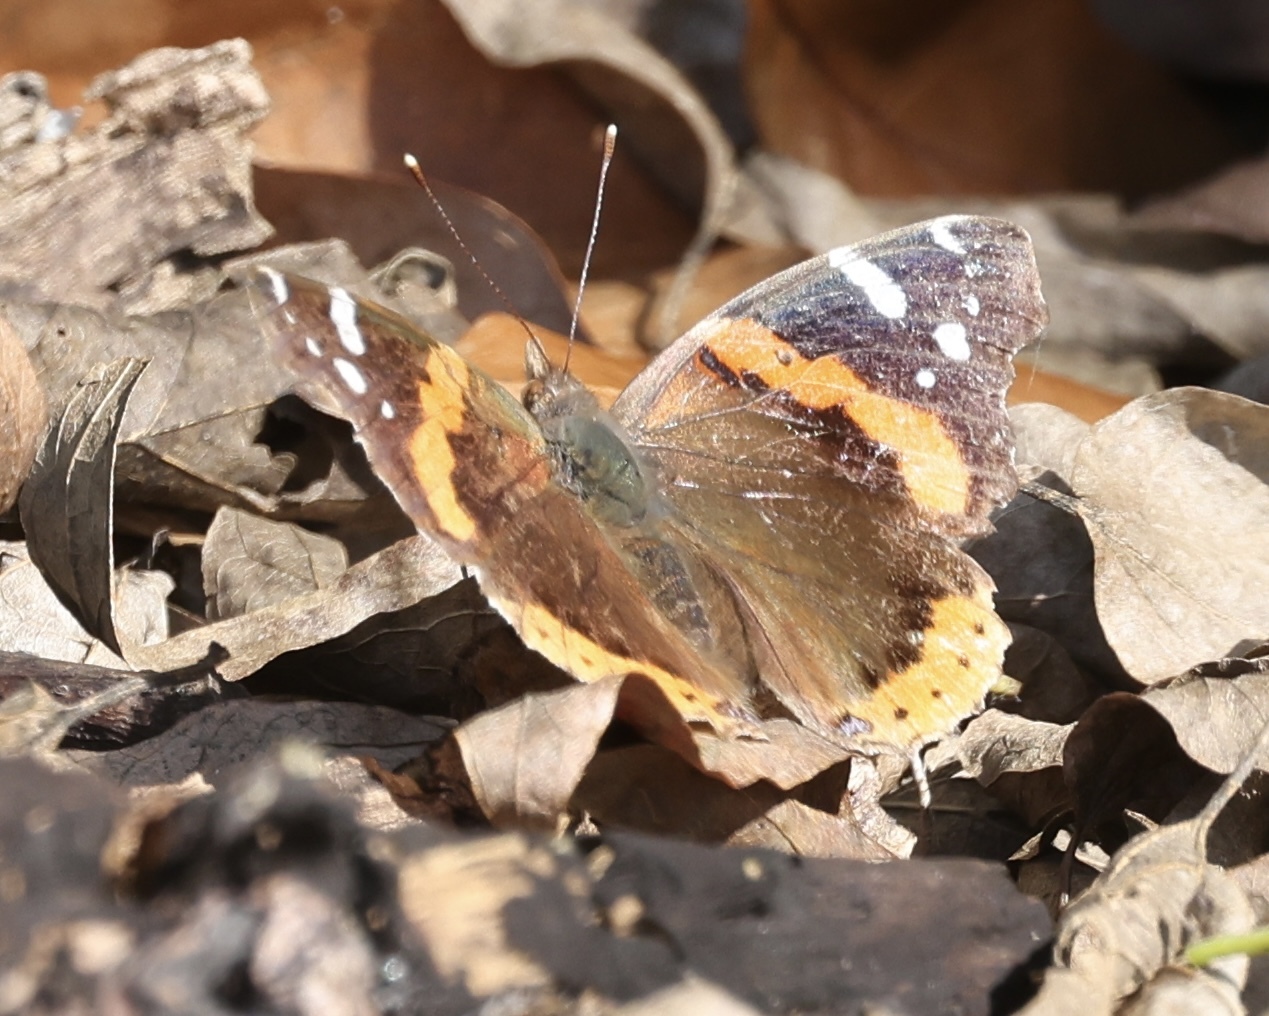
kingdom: Animalia
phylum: Arthropoda
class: Insecta
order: Lepidoptera
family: Nymphalidae
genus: Vanessa
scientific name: Vanessa atalanta
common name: Red admiral
